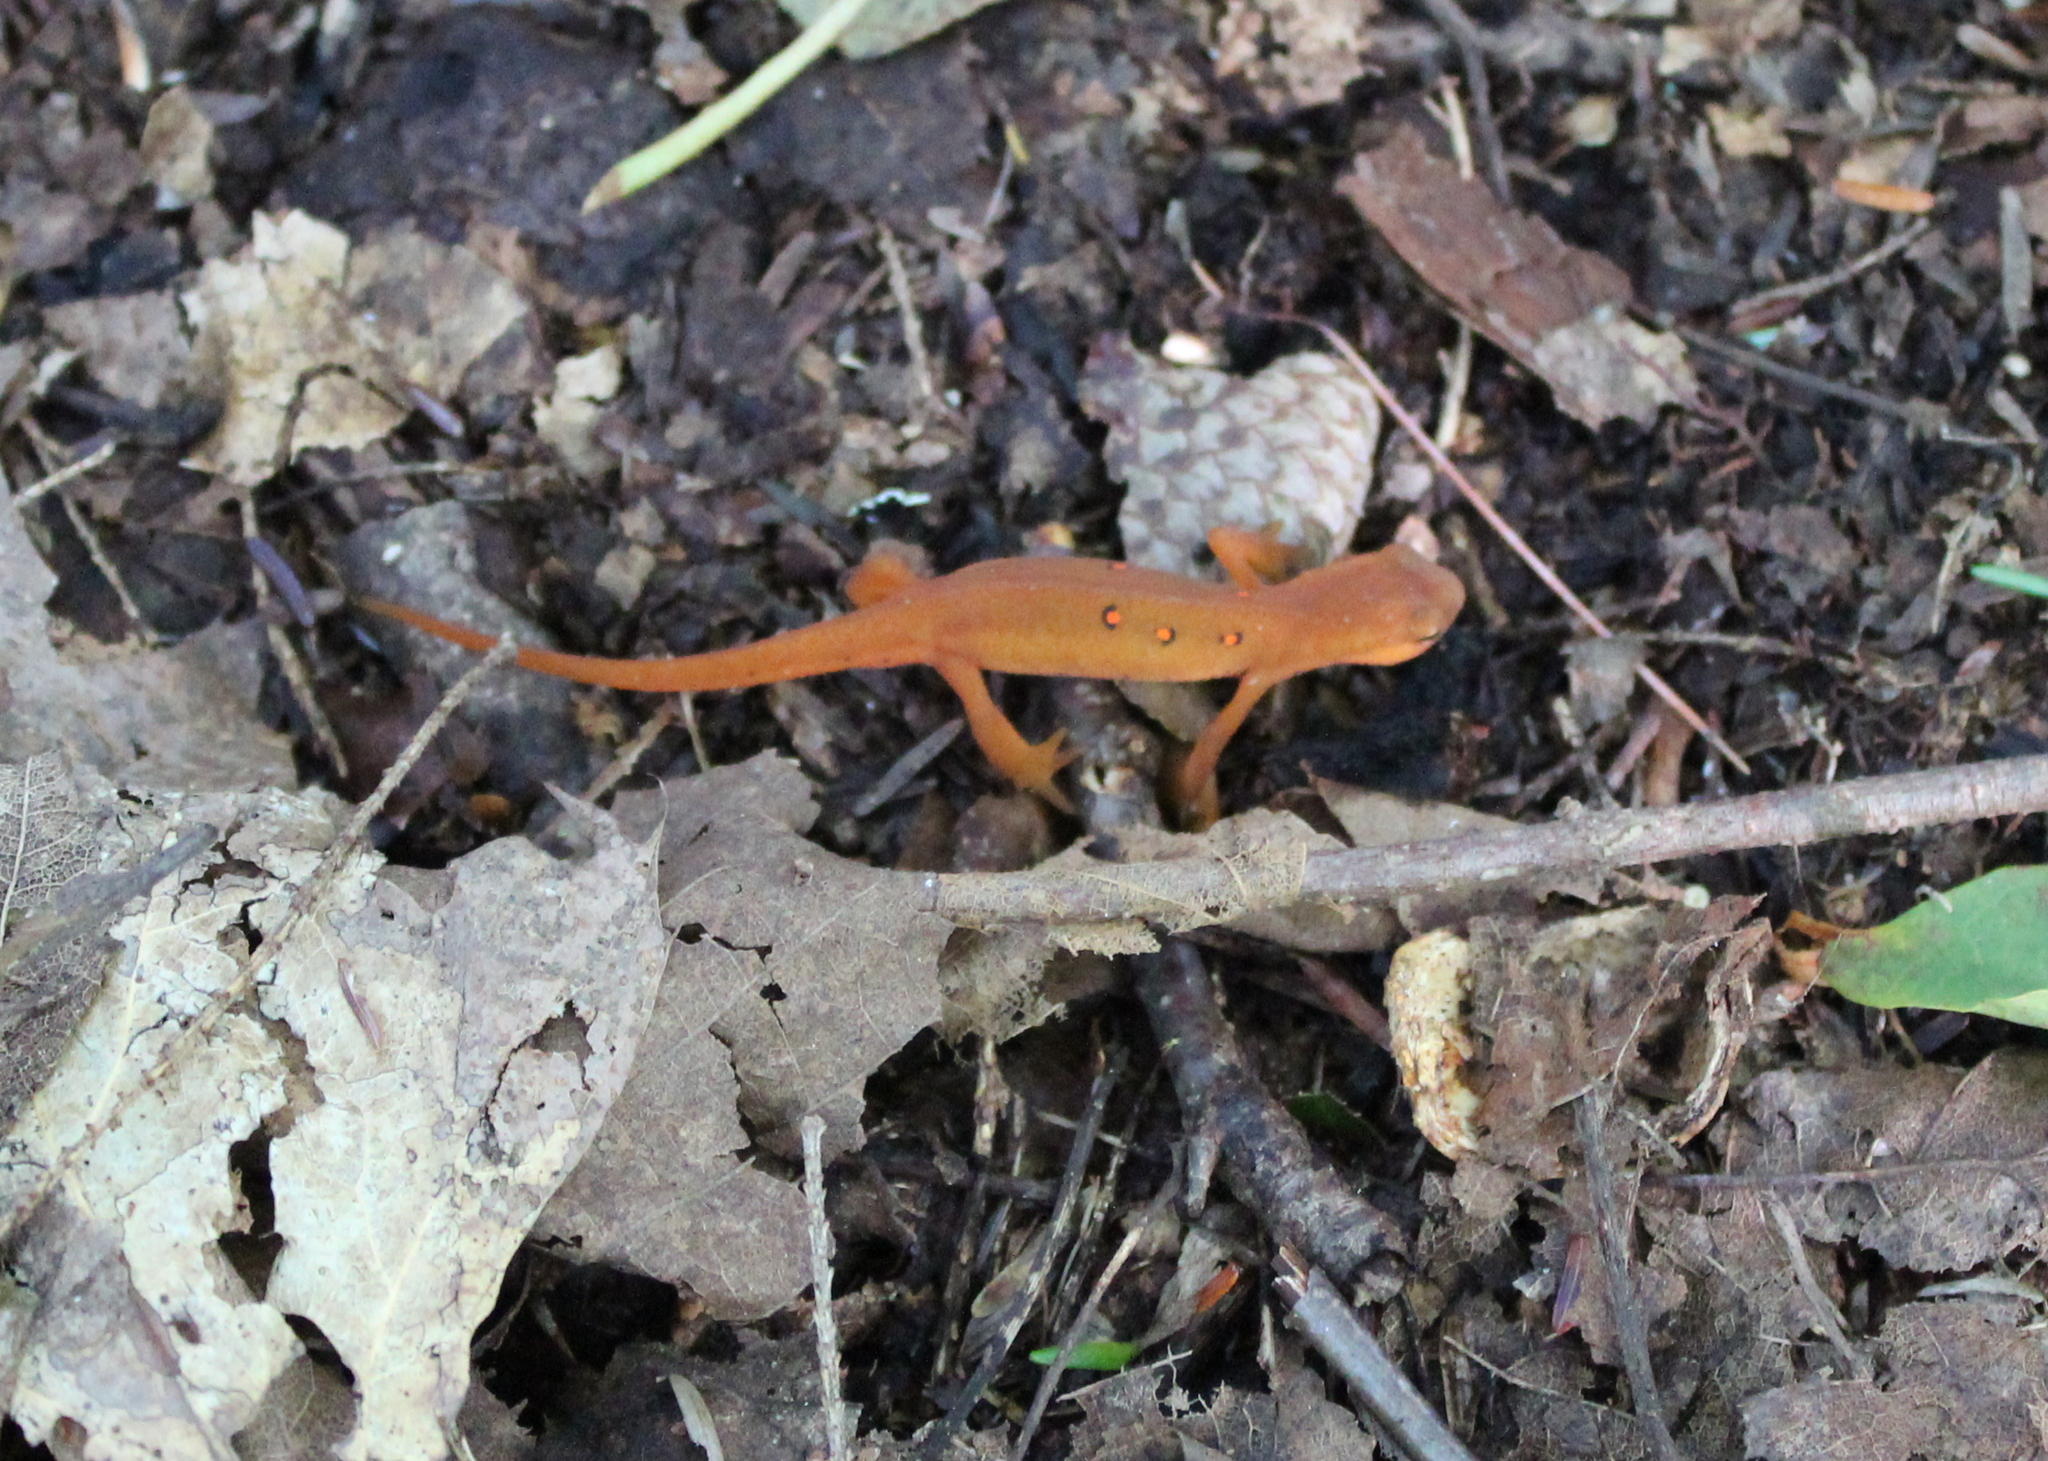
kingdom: Animalia
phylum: Chordata
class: Amphibia
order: Caudata
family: Salamandridae
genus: Notophthalmus
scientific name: Notophthalmus viridescens
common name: Eastern newt
